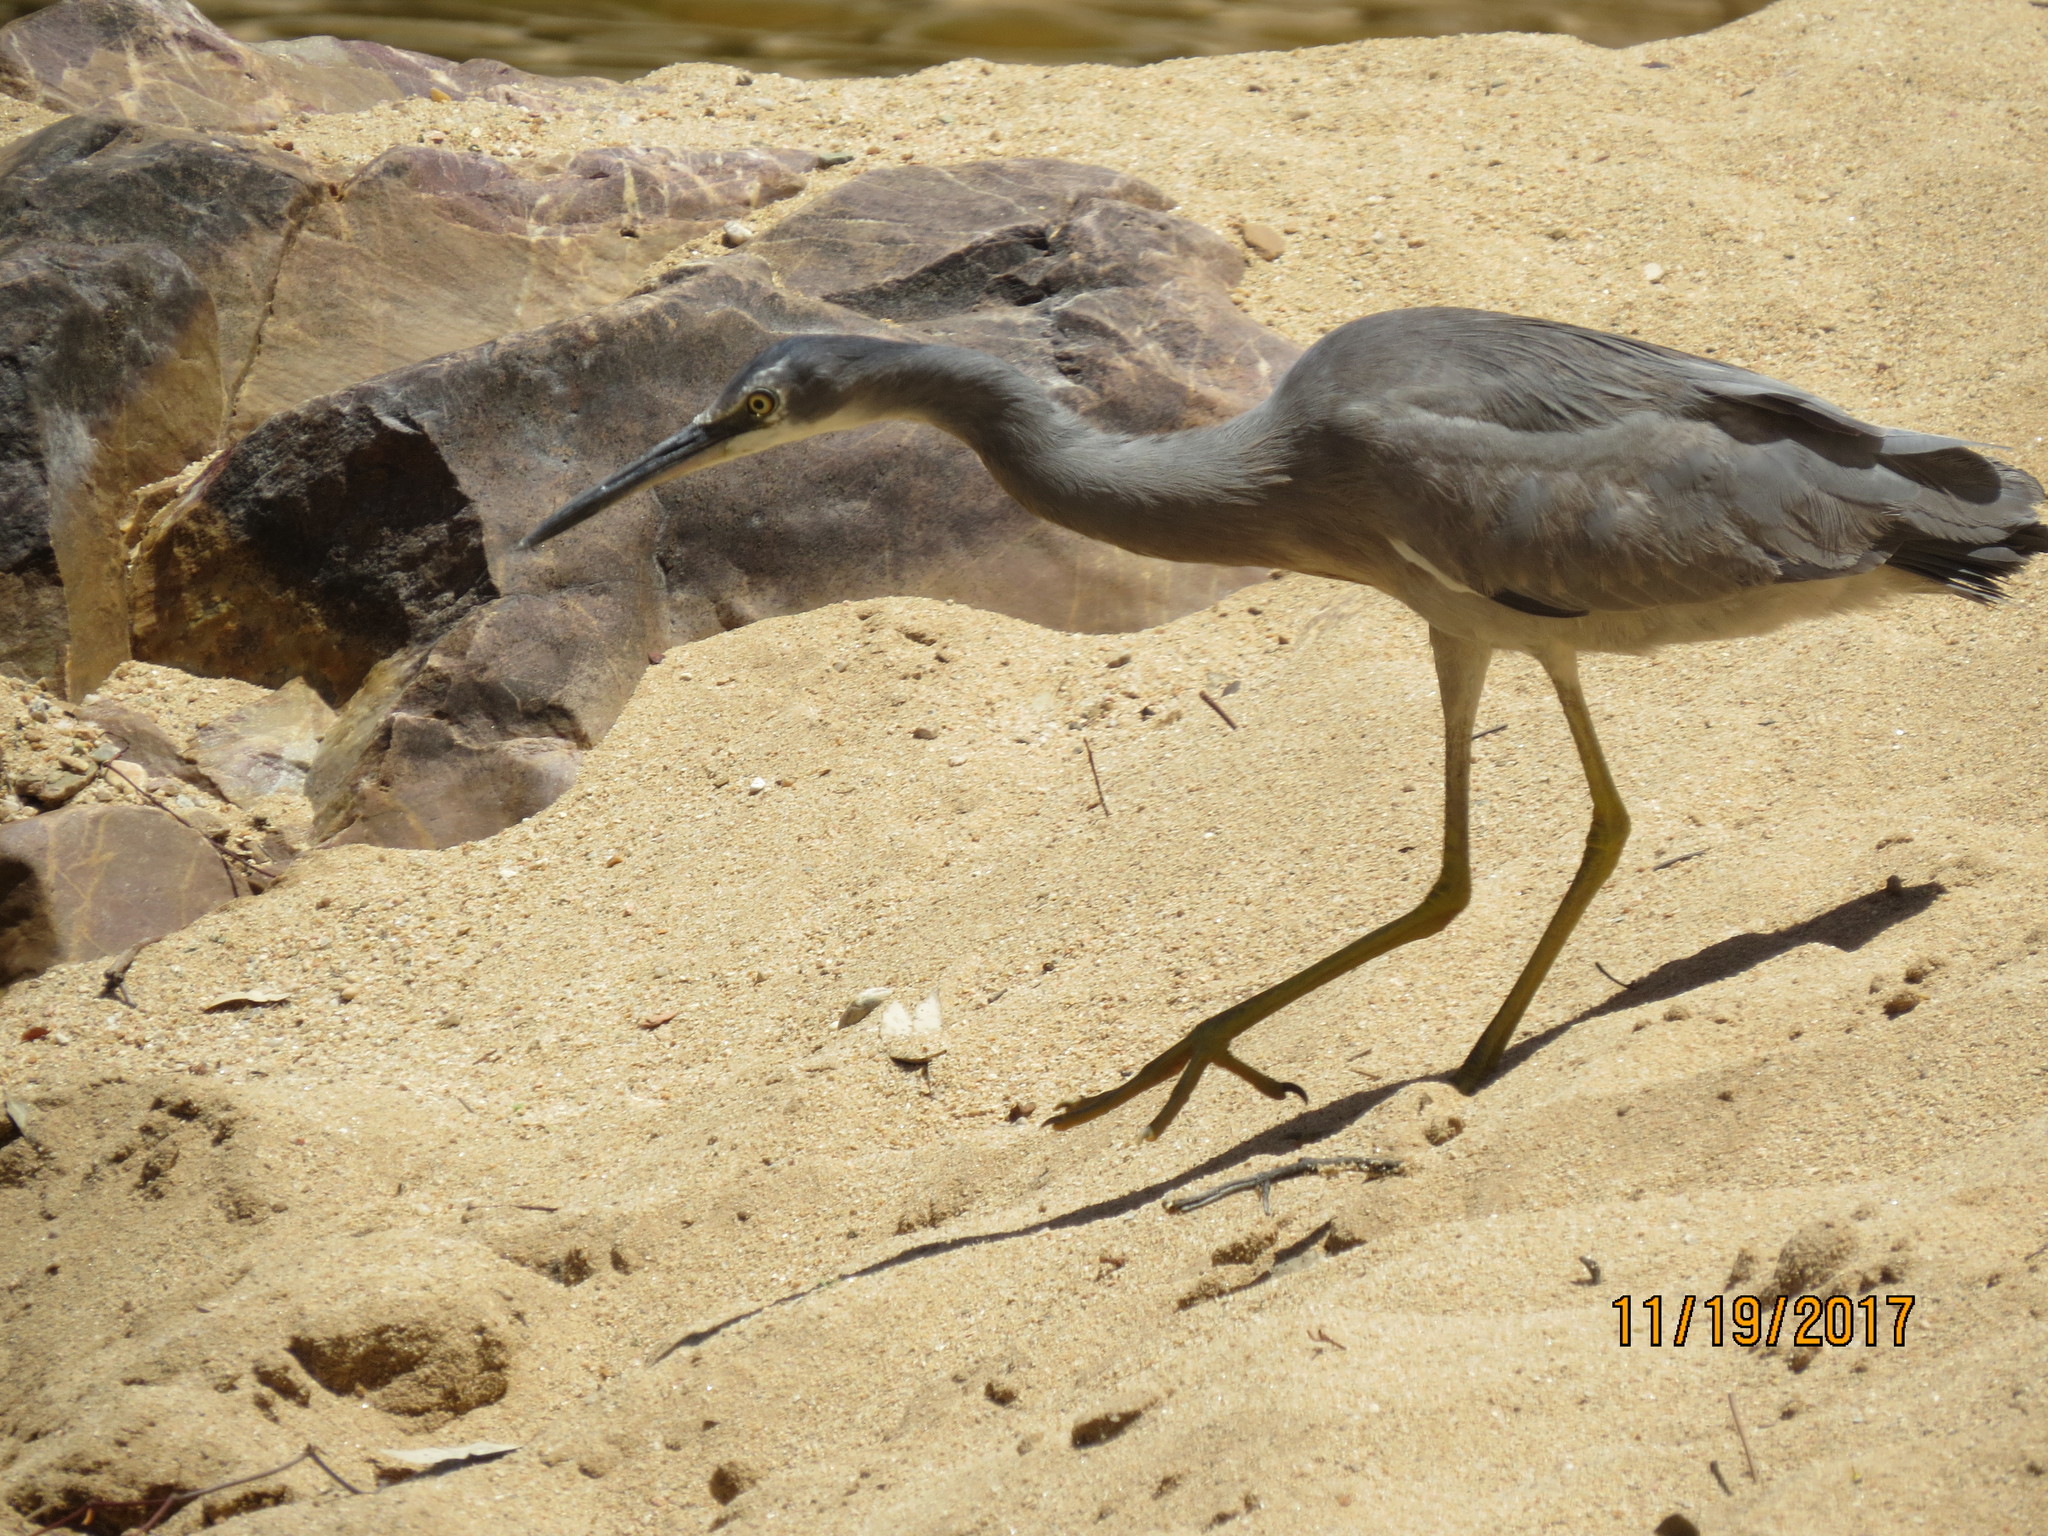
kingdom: Animalia
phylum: Chordata
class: Aves
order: Pelecaniformes
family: Ardeidae
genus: Egretta
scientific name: Egretta novaehollandiae
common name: White-faced heron
